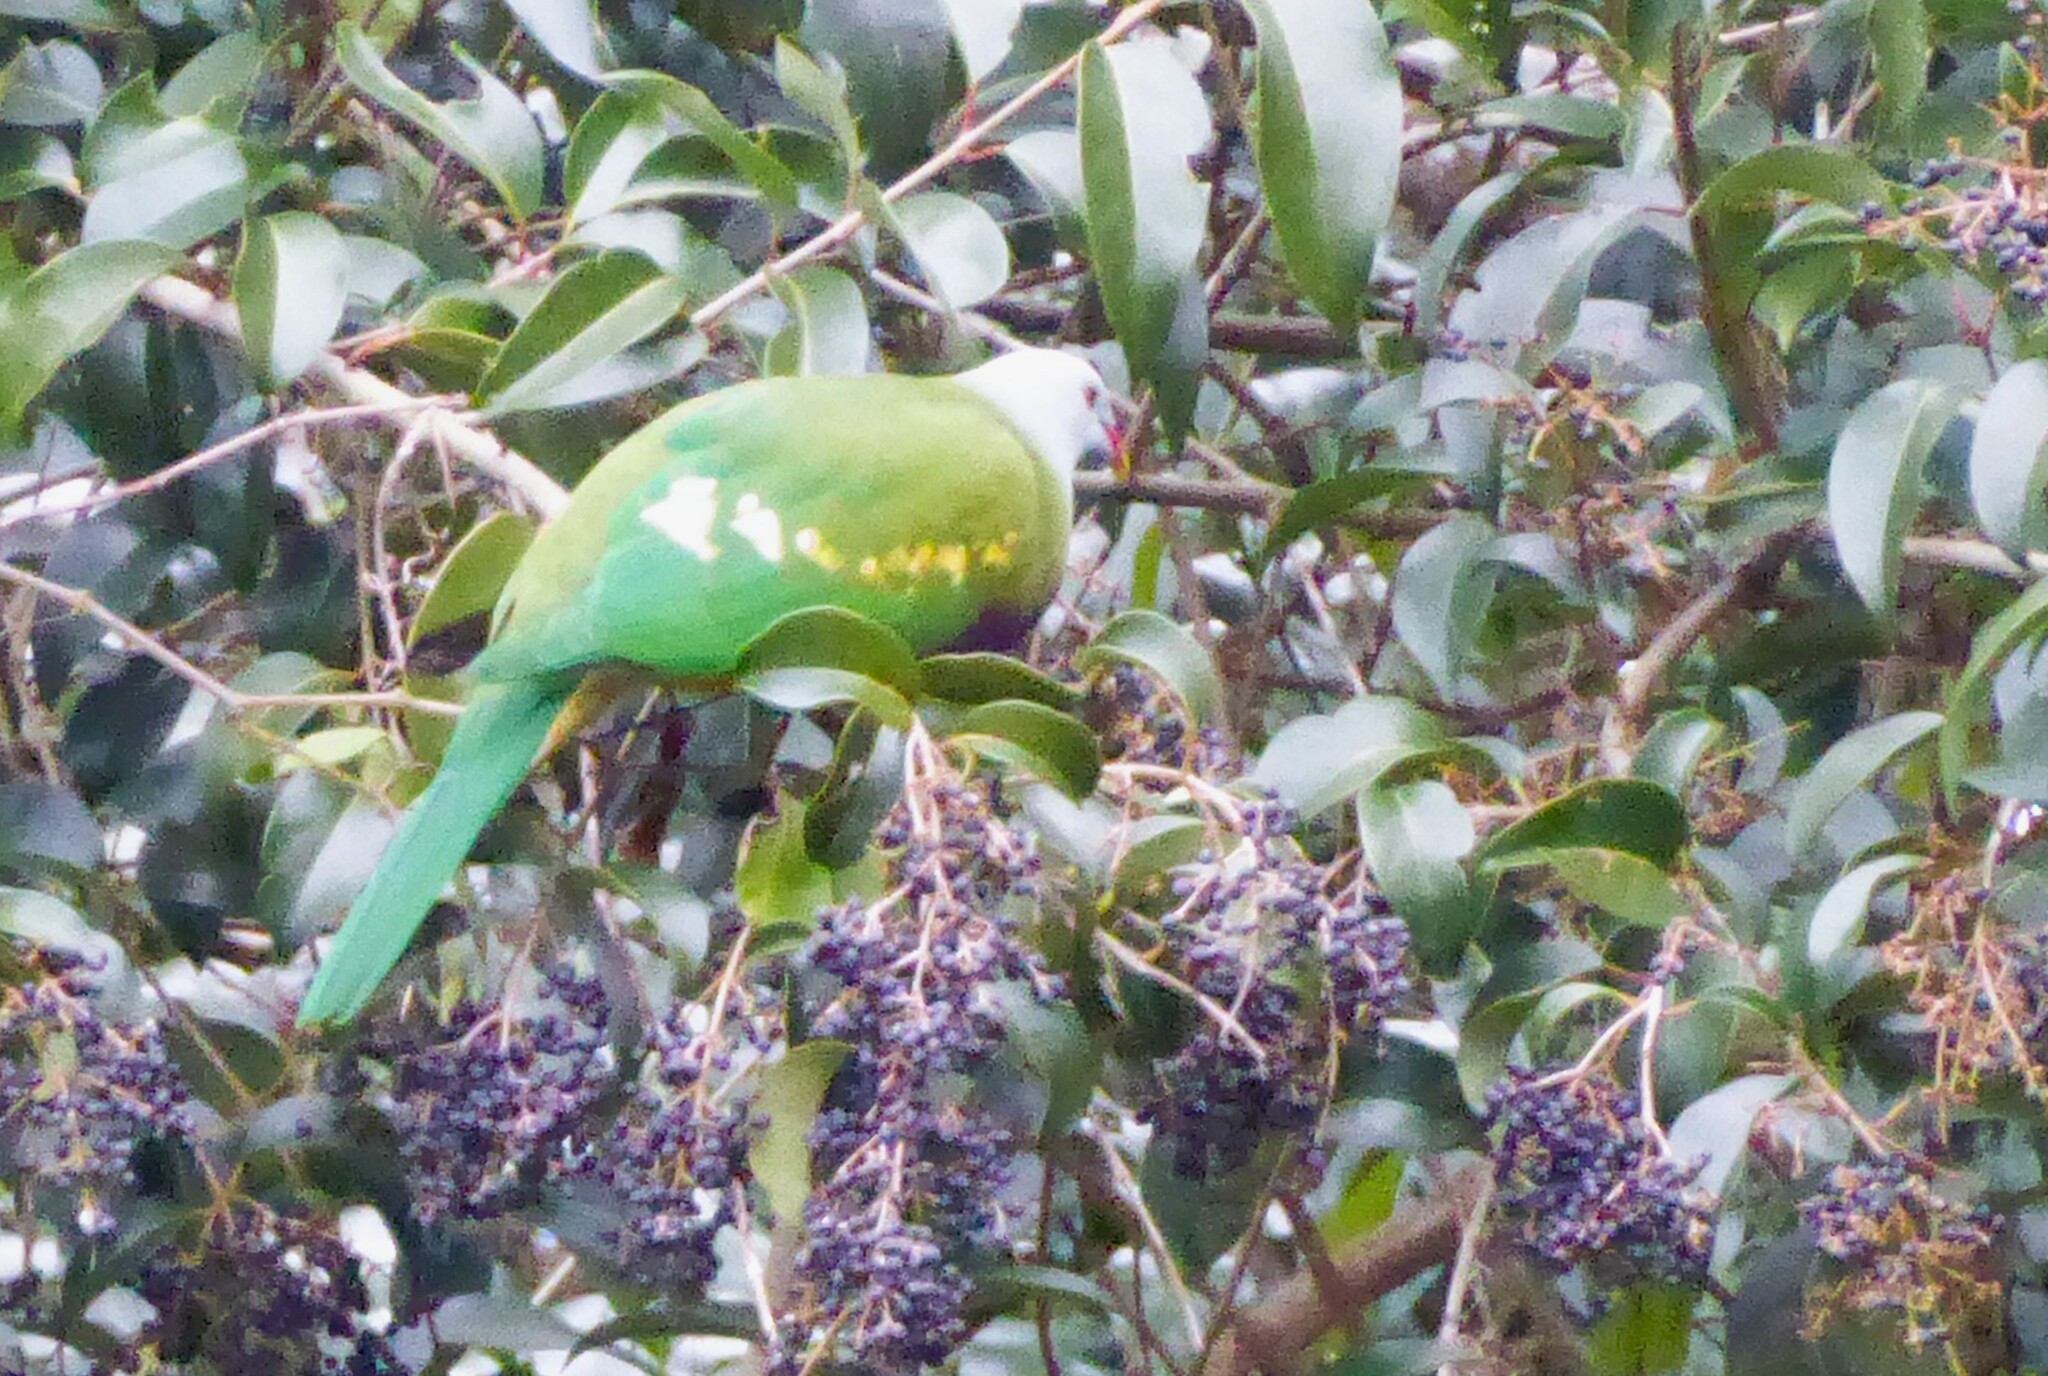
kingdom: Animalia
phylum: Chordata
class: Aves
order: Columbiformes
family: Columbidae
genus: Ptilinopus
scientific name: Ptilinopus magnificus
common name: Wompoo fruit dove
